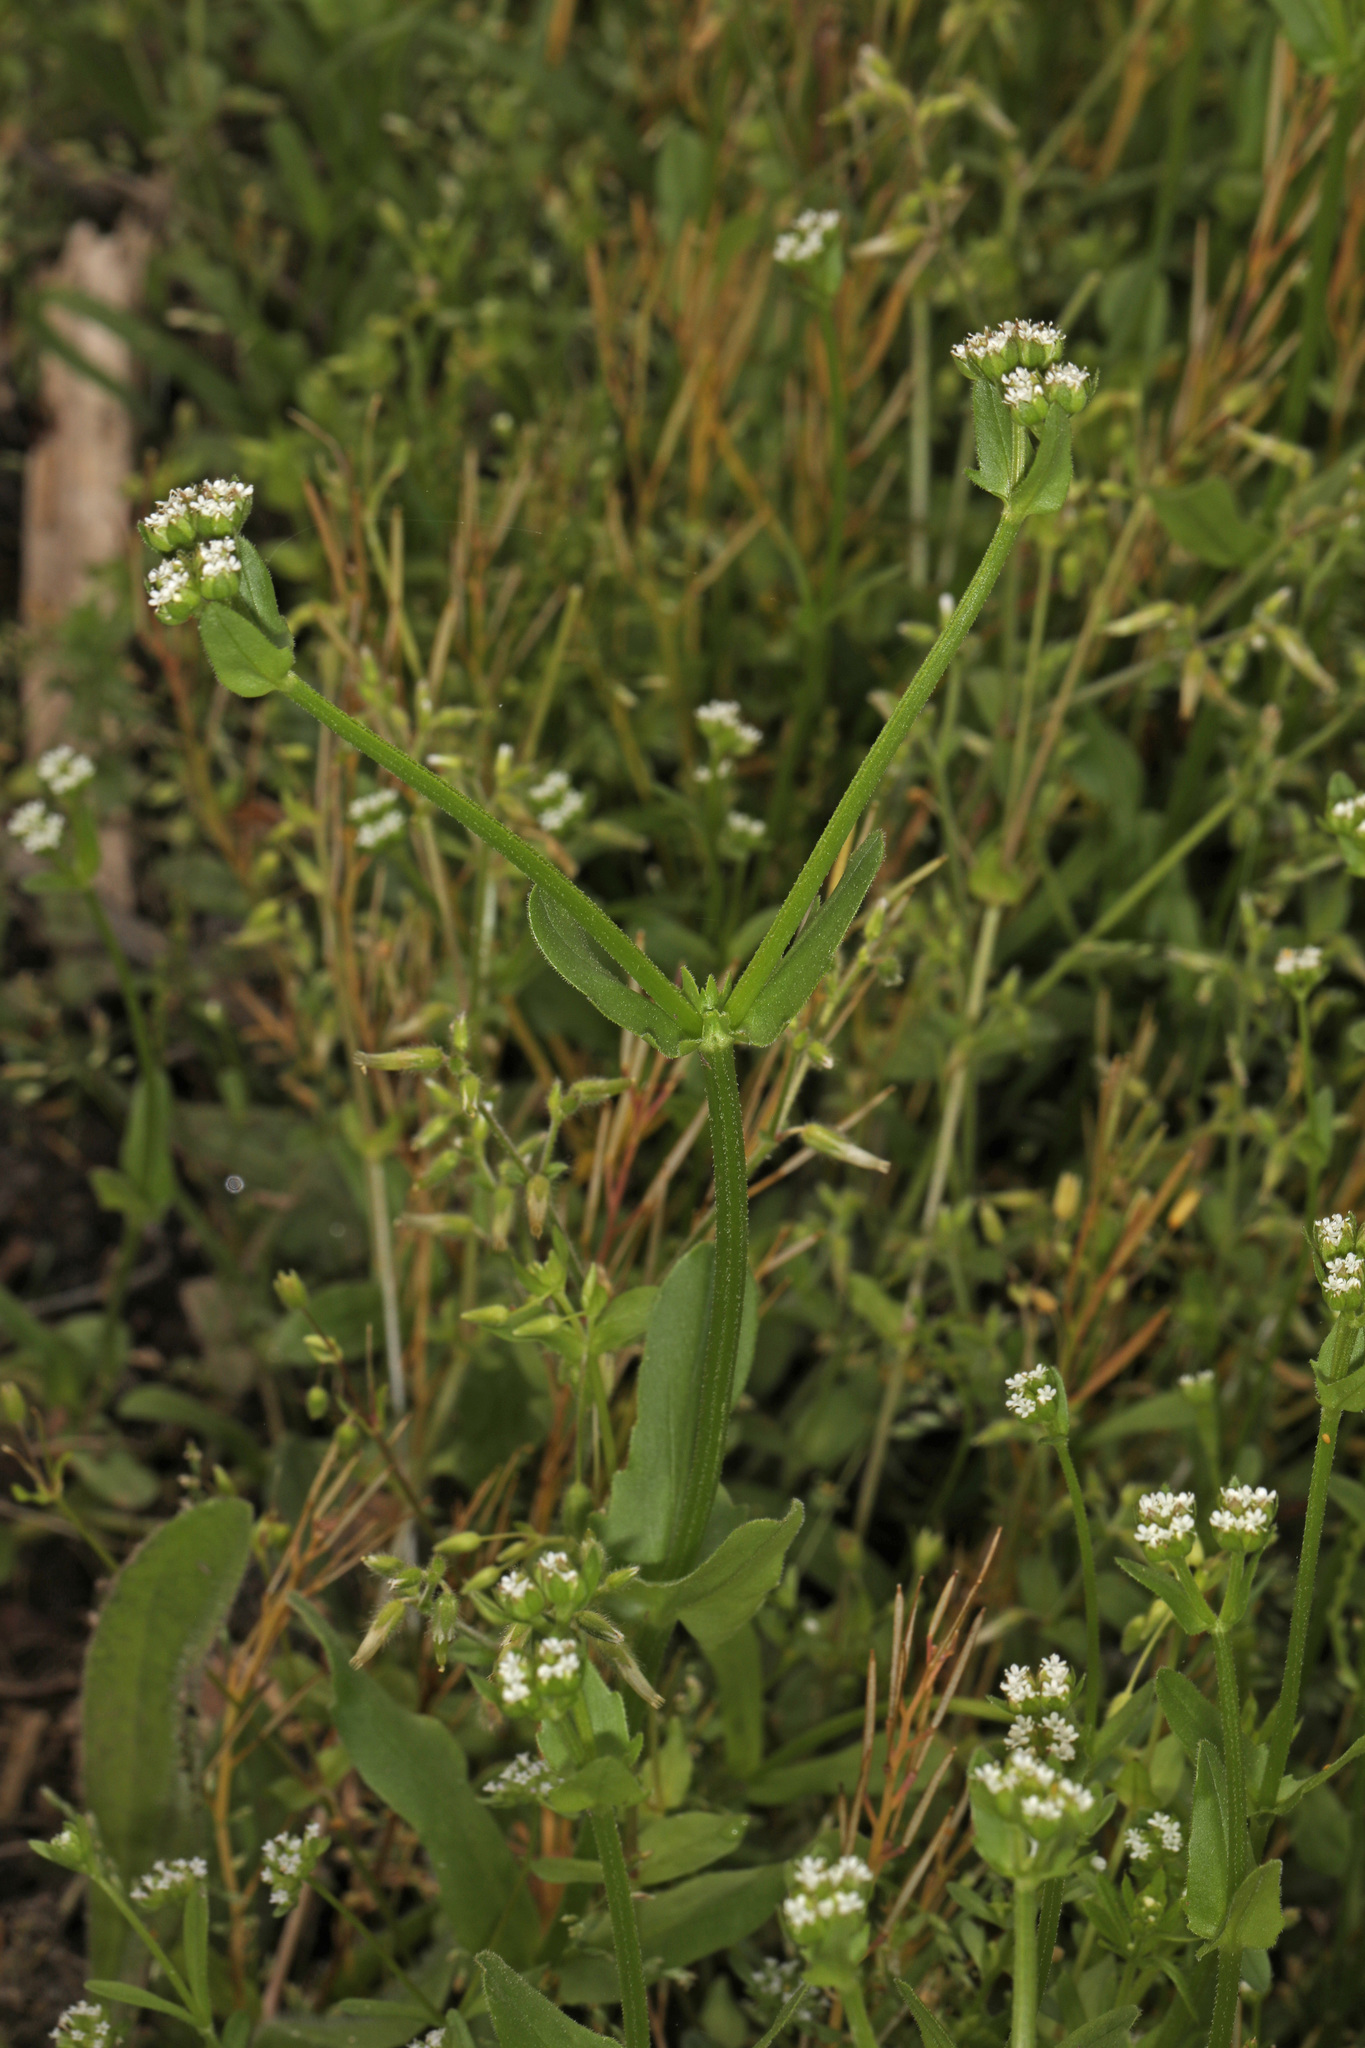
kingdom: Plantae
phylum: Tracheophyta
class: Magnoliopsida
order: Dipsacales
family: Caprifoliaceae
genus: Valerianella
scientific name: Valerianella radiata
